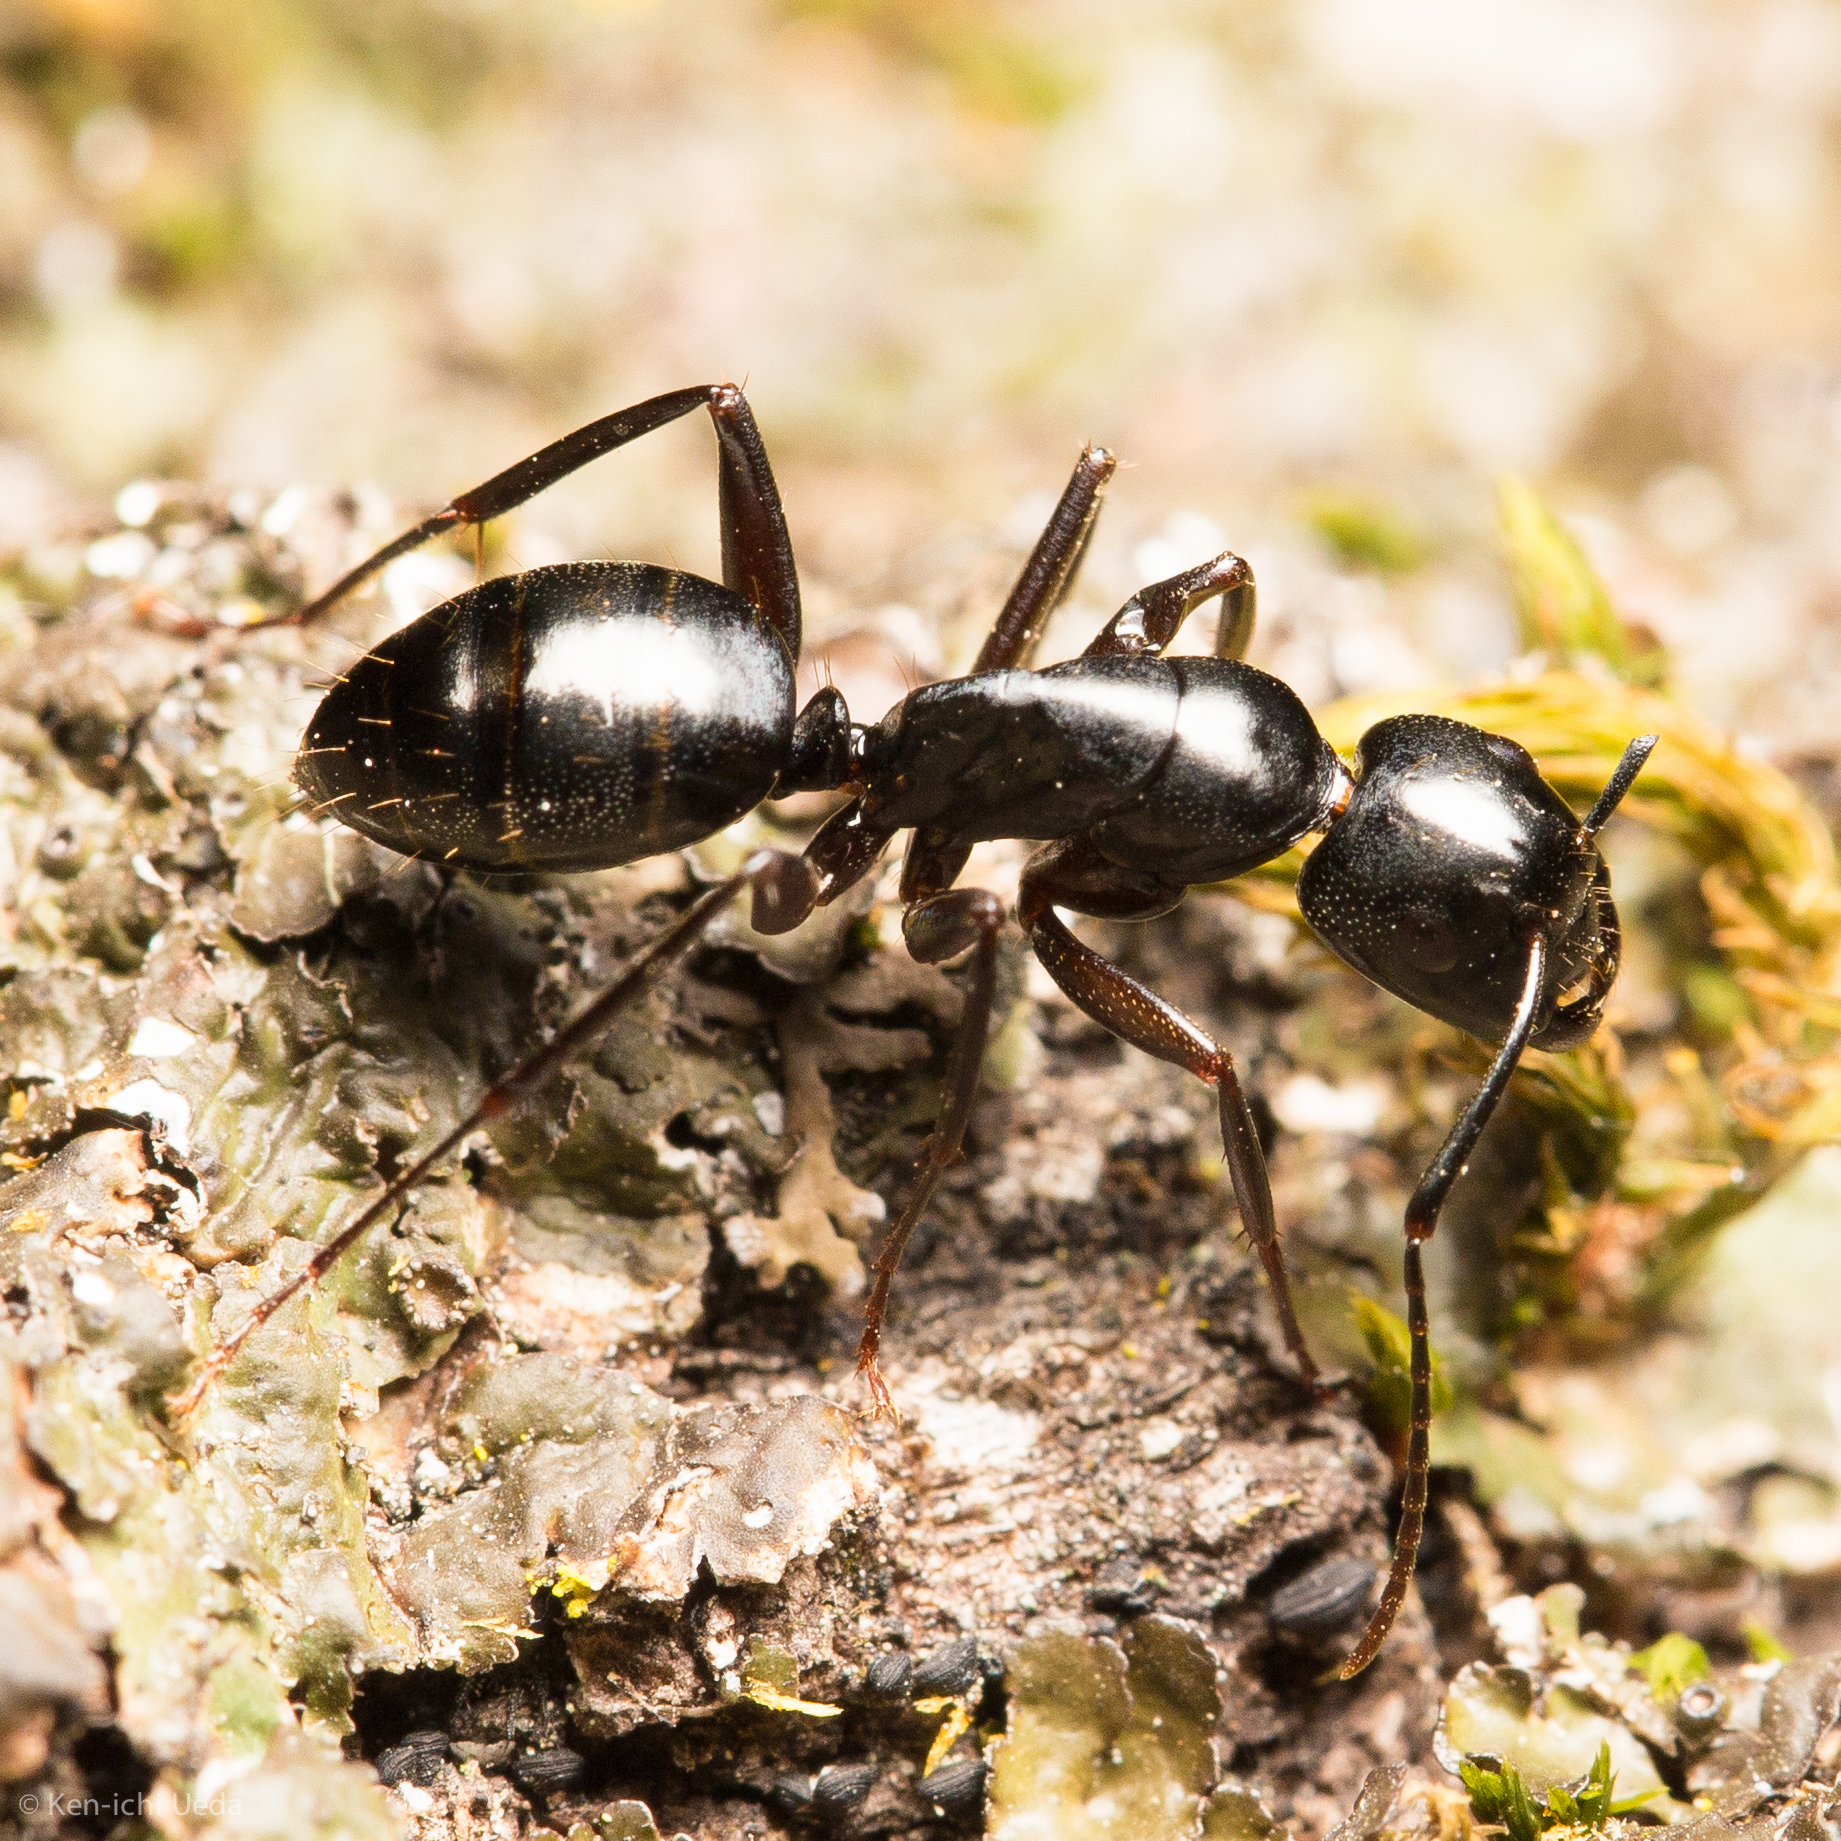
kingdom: Animalia
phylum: Arthropoda
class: Insecta
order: Hymenoptera
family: Formicidae
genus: Camponotus
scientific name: Camponotus laevigatus
